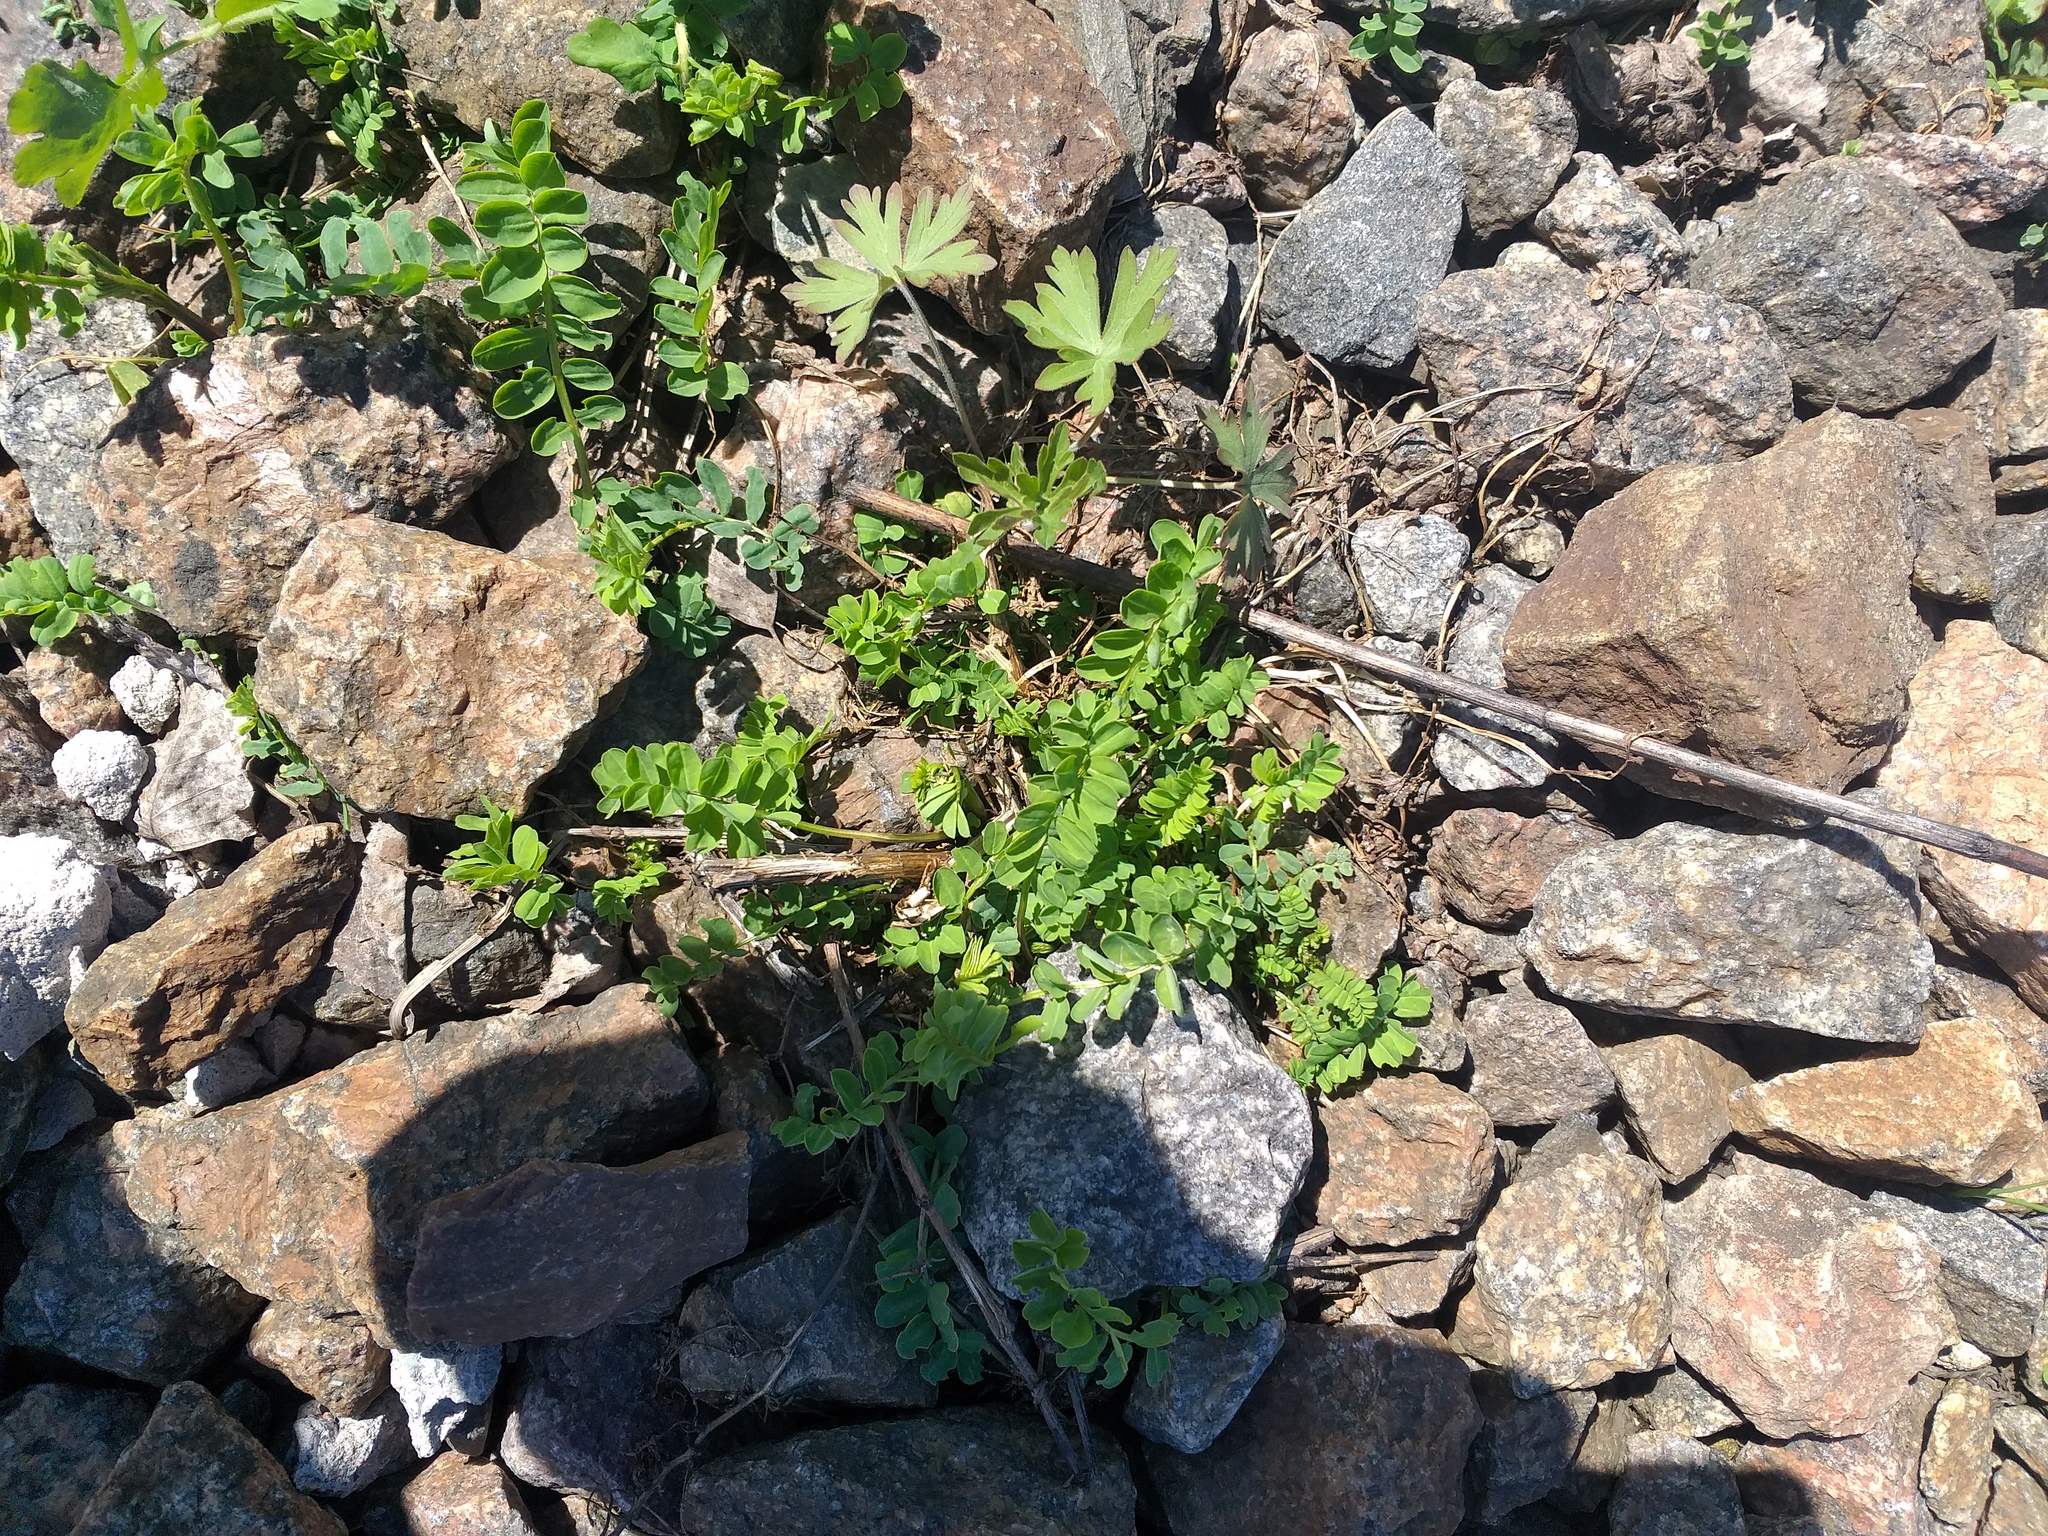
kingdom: Plantae
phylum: Tracheophyta
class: Magnoliopsida
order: Fabales
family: Fabaceae
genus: Coronilla
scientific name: Coronilla varia
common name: Crownvetch
